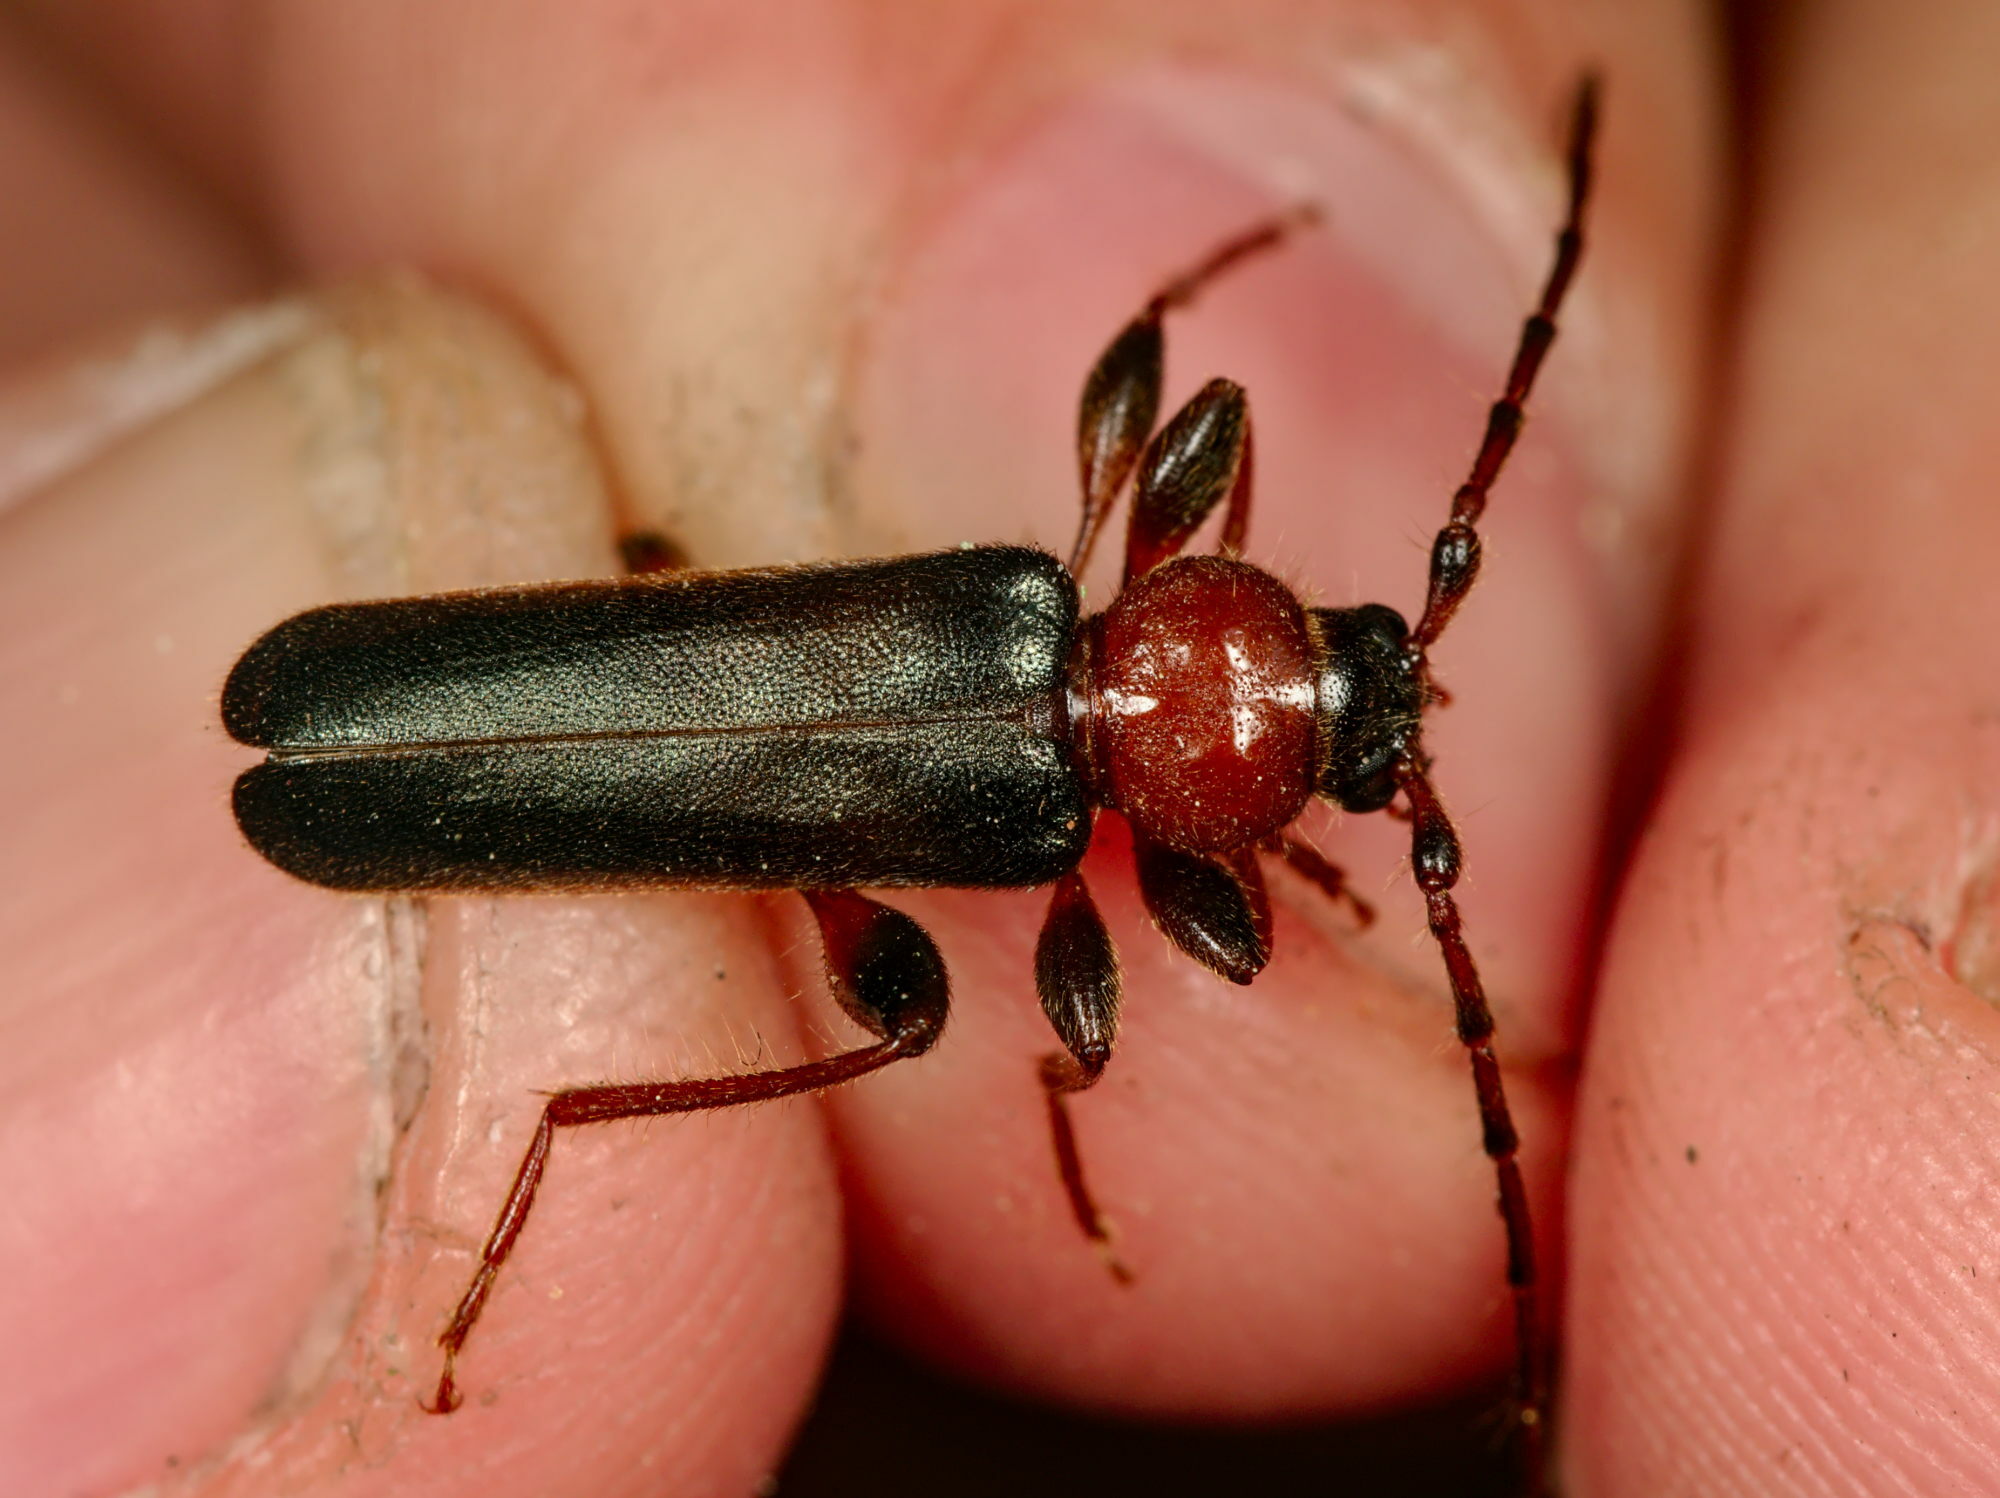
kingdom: Animalia
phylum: Arthropoda
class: Insecta
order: Coleoptera
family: Cerambycidae
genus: Phymatodes
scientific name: Phymatodes testaceus
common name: Long-horned beetle
